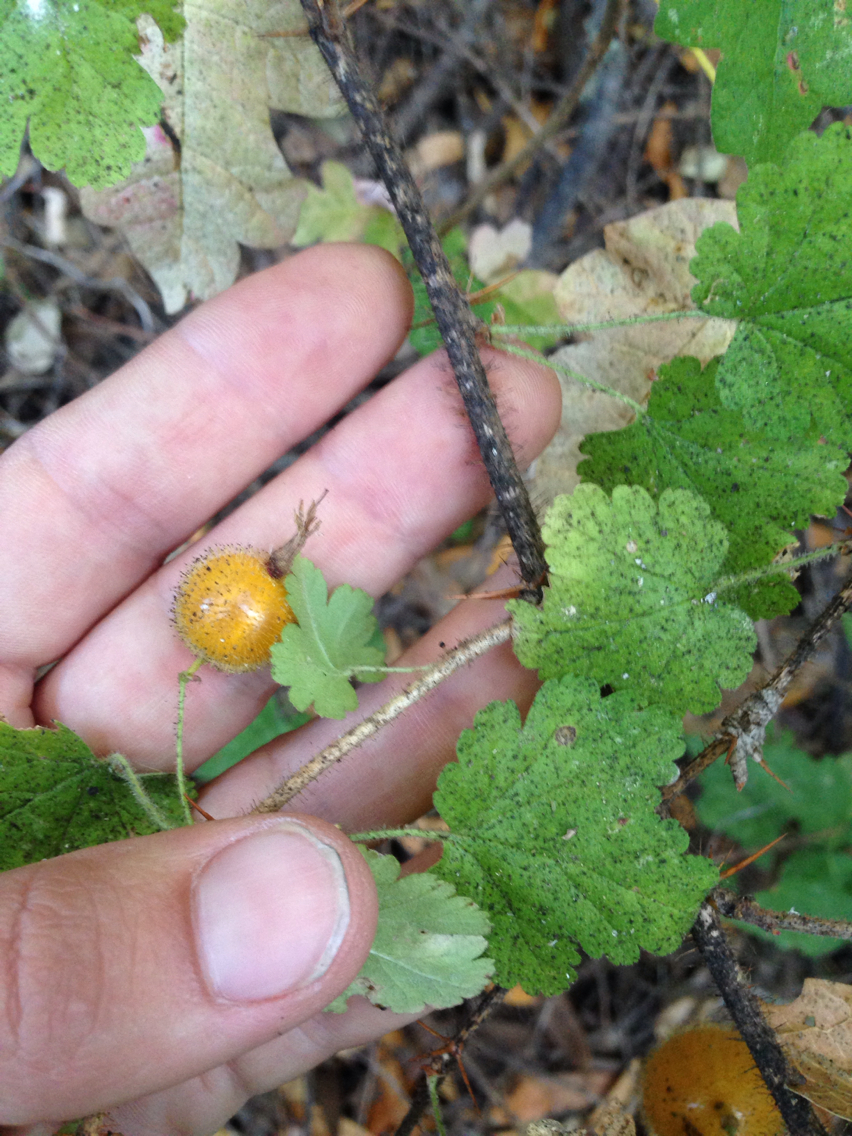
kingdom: Plantae
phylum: Tracheophyta
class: Magnoliopsida
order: Saxifragales
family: Grossulariaceae
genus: Ribes
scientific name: Ribes menziesii
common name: Canyon gooseberry
